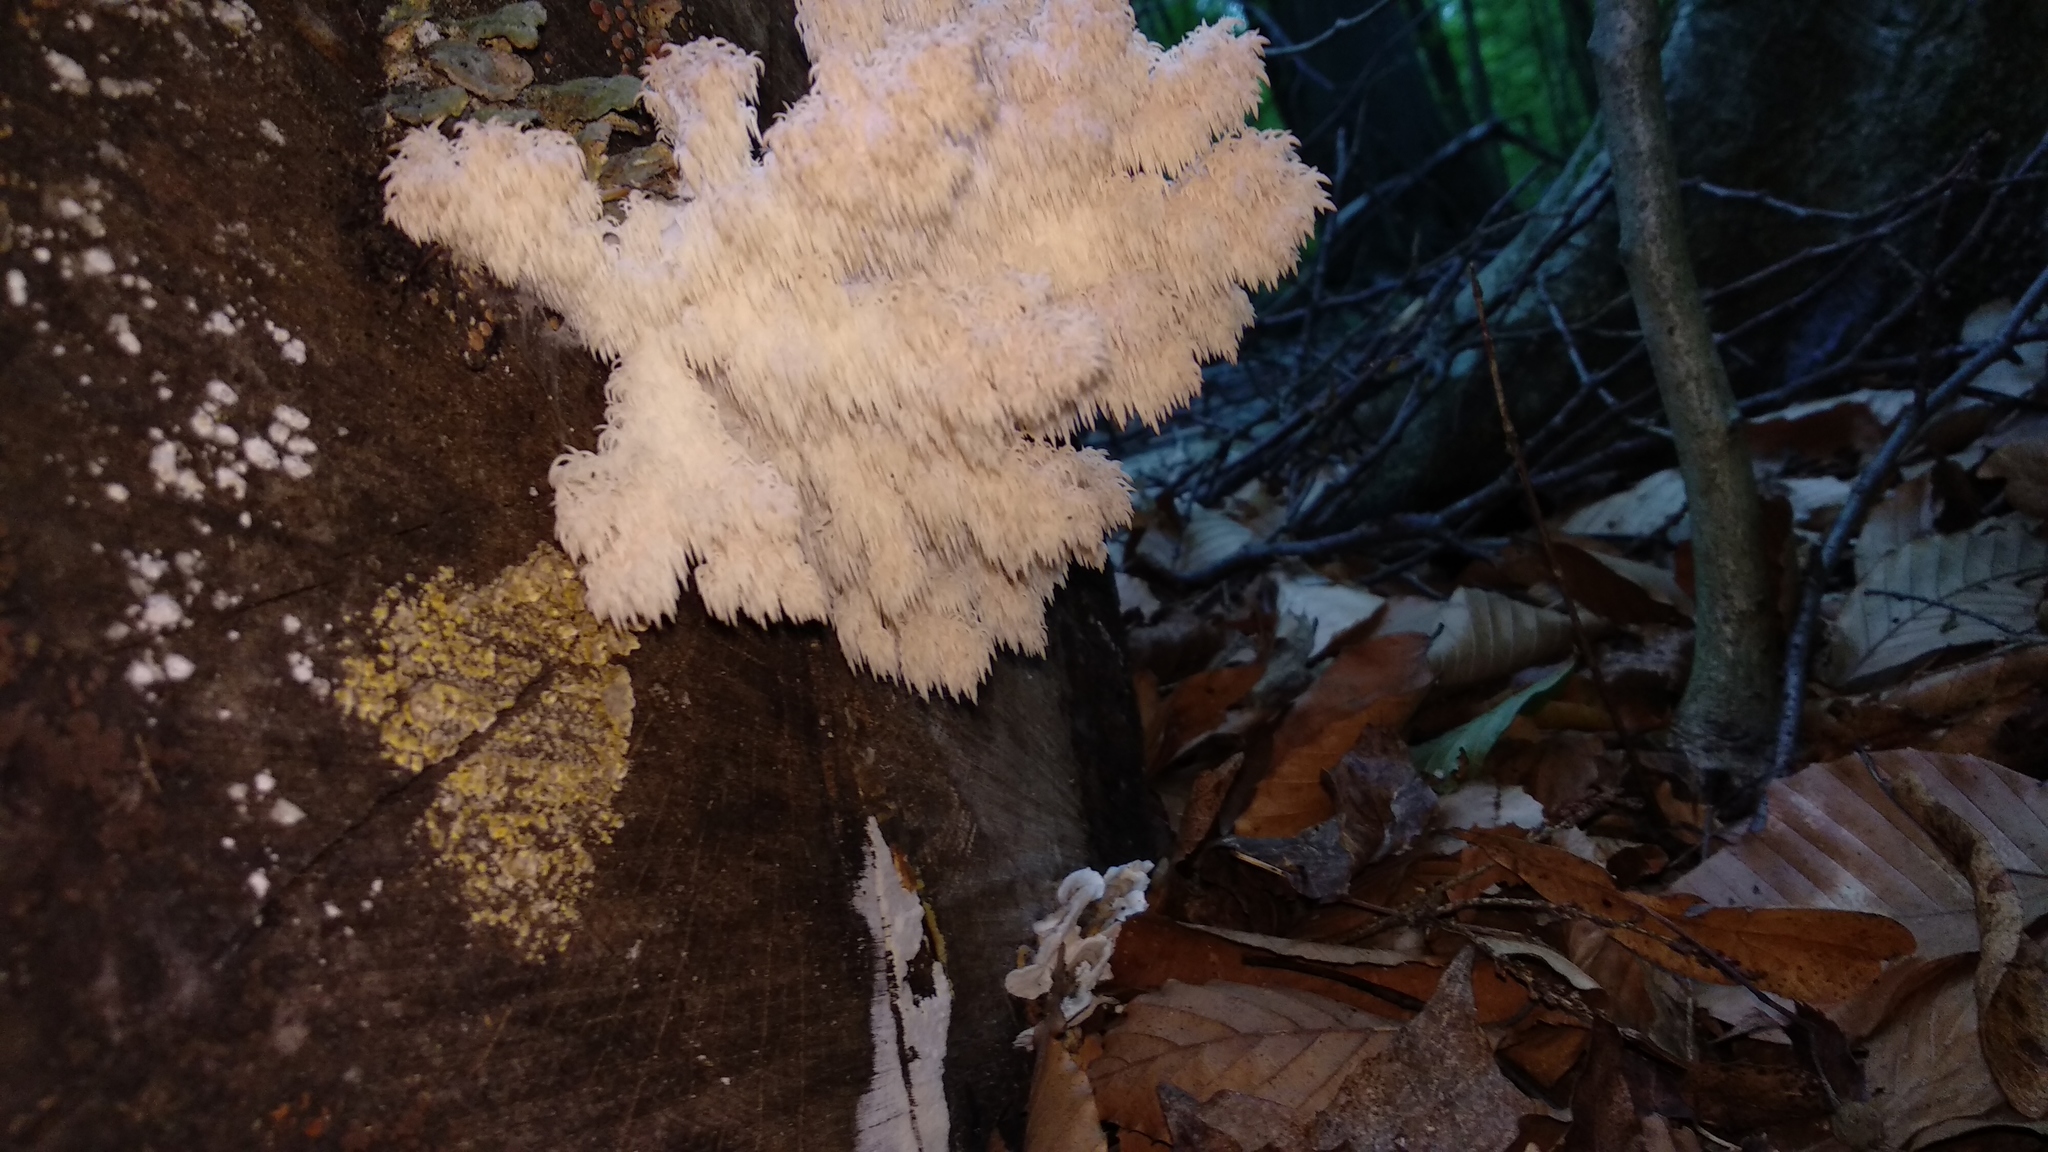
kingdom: Fungi
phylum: Basidiomycota
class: Agaricomycetes
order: Russulales
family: Hericiaceae
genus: Hericium
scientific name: Hericium coralloides
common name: Coral tooth
